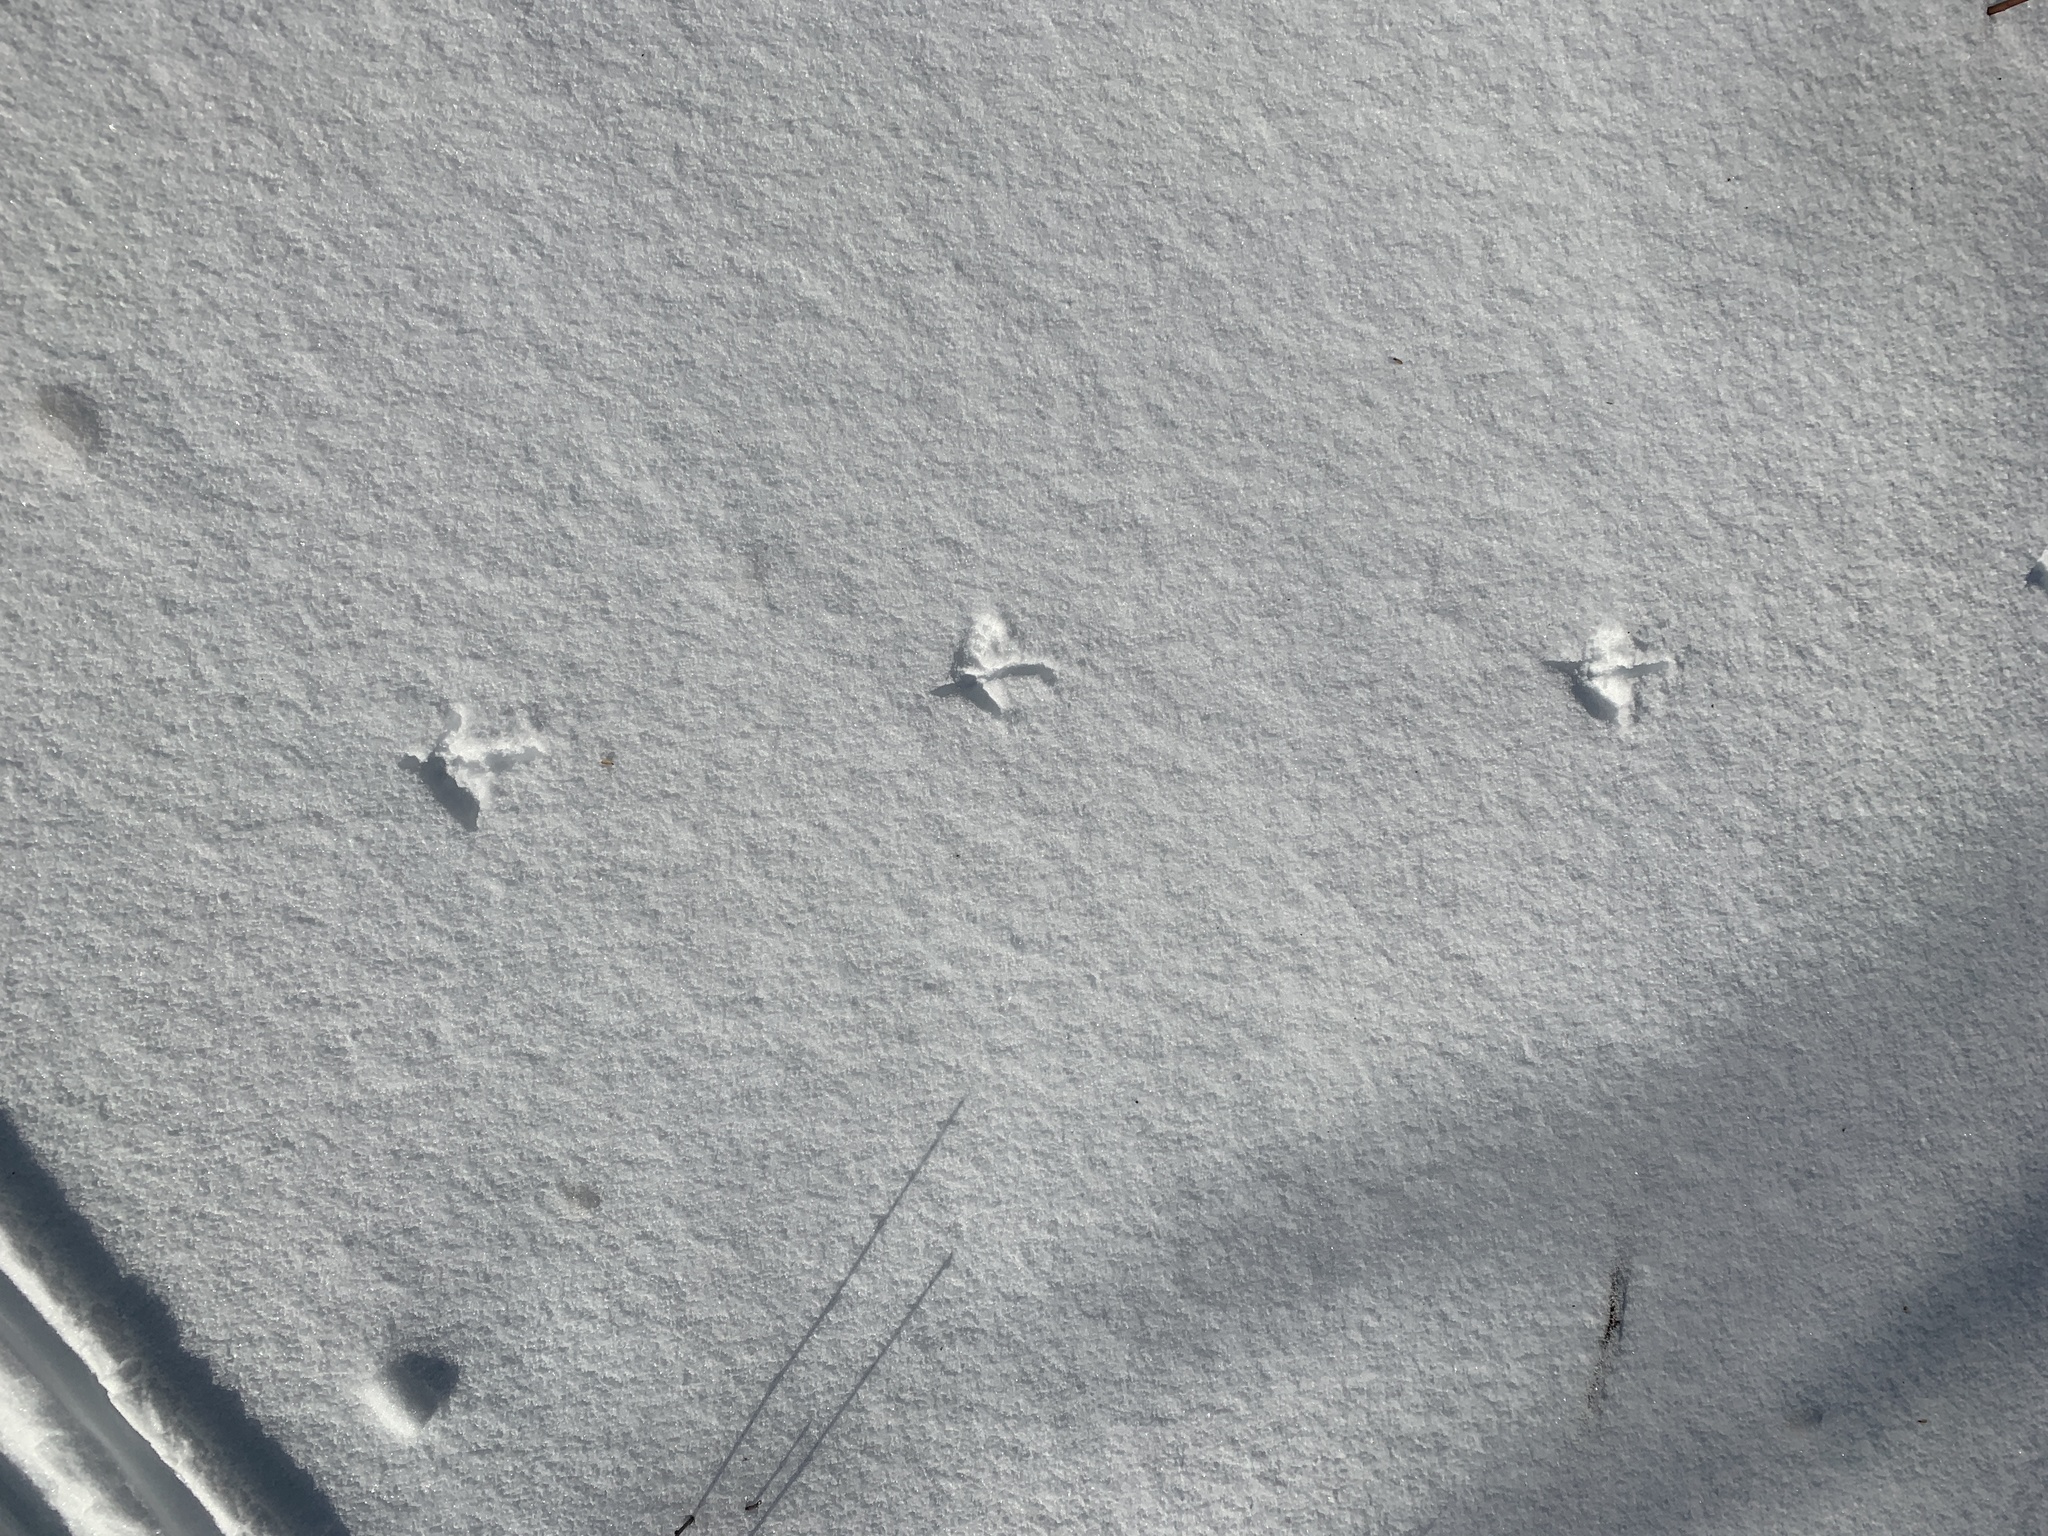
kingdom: Animalia
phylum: Chordata
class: Aves
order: Galliformes
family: Phasianidae
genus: Phasianus
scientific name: Phasianus colchicus
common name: Common pheasant
